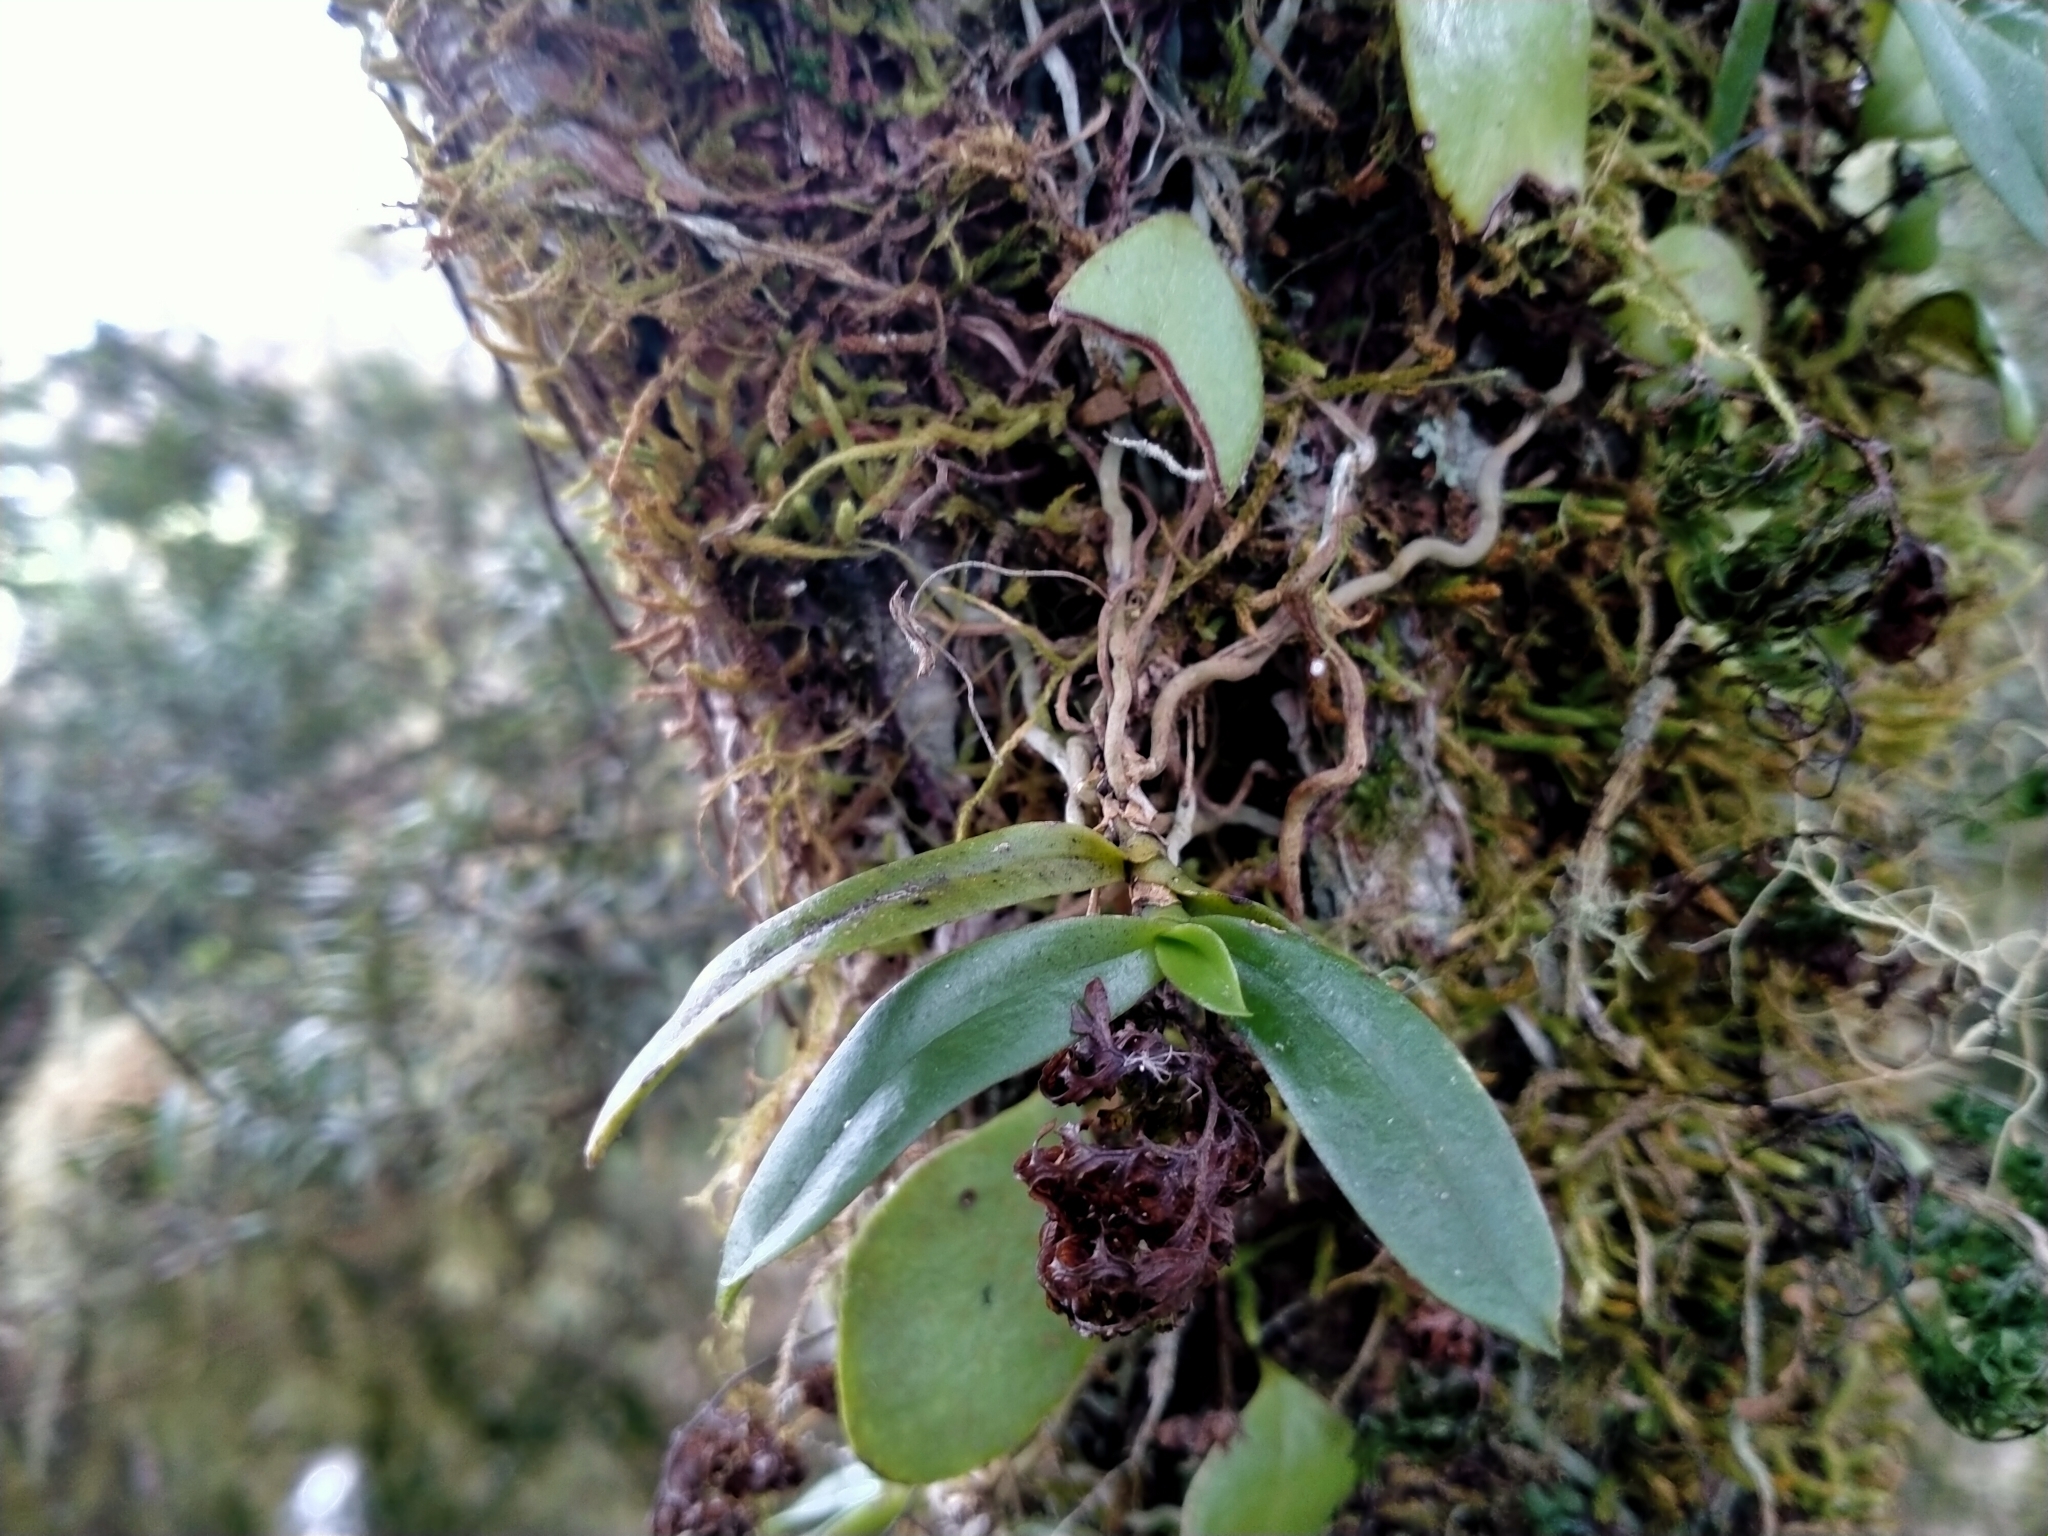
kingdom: Plantae
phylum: Tracheophyta
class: Liliopsida
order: Asparagales
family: Orchidaceae
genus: Drymoanthus
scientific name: Drymoanthus adversus
